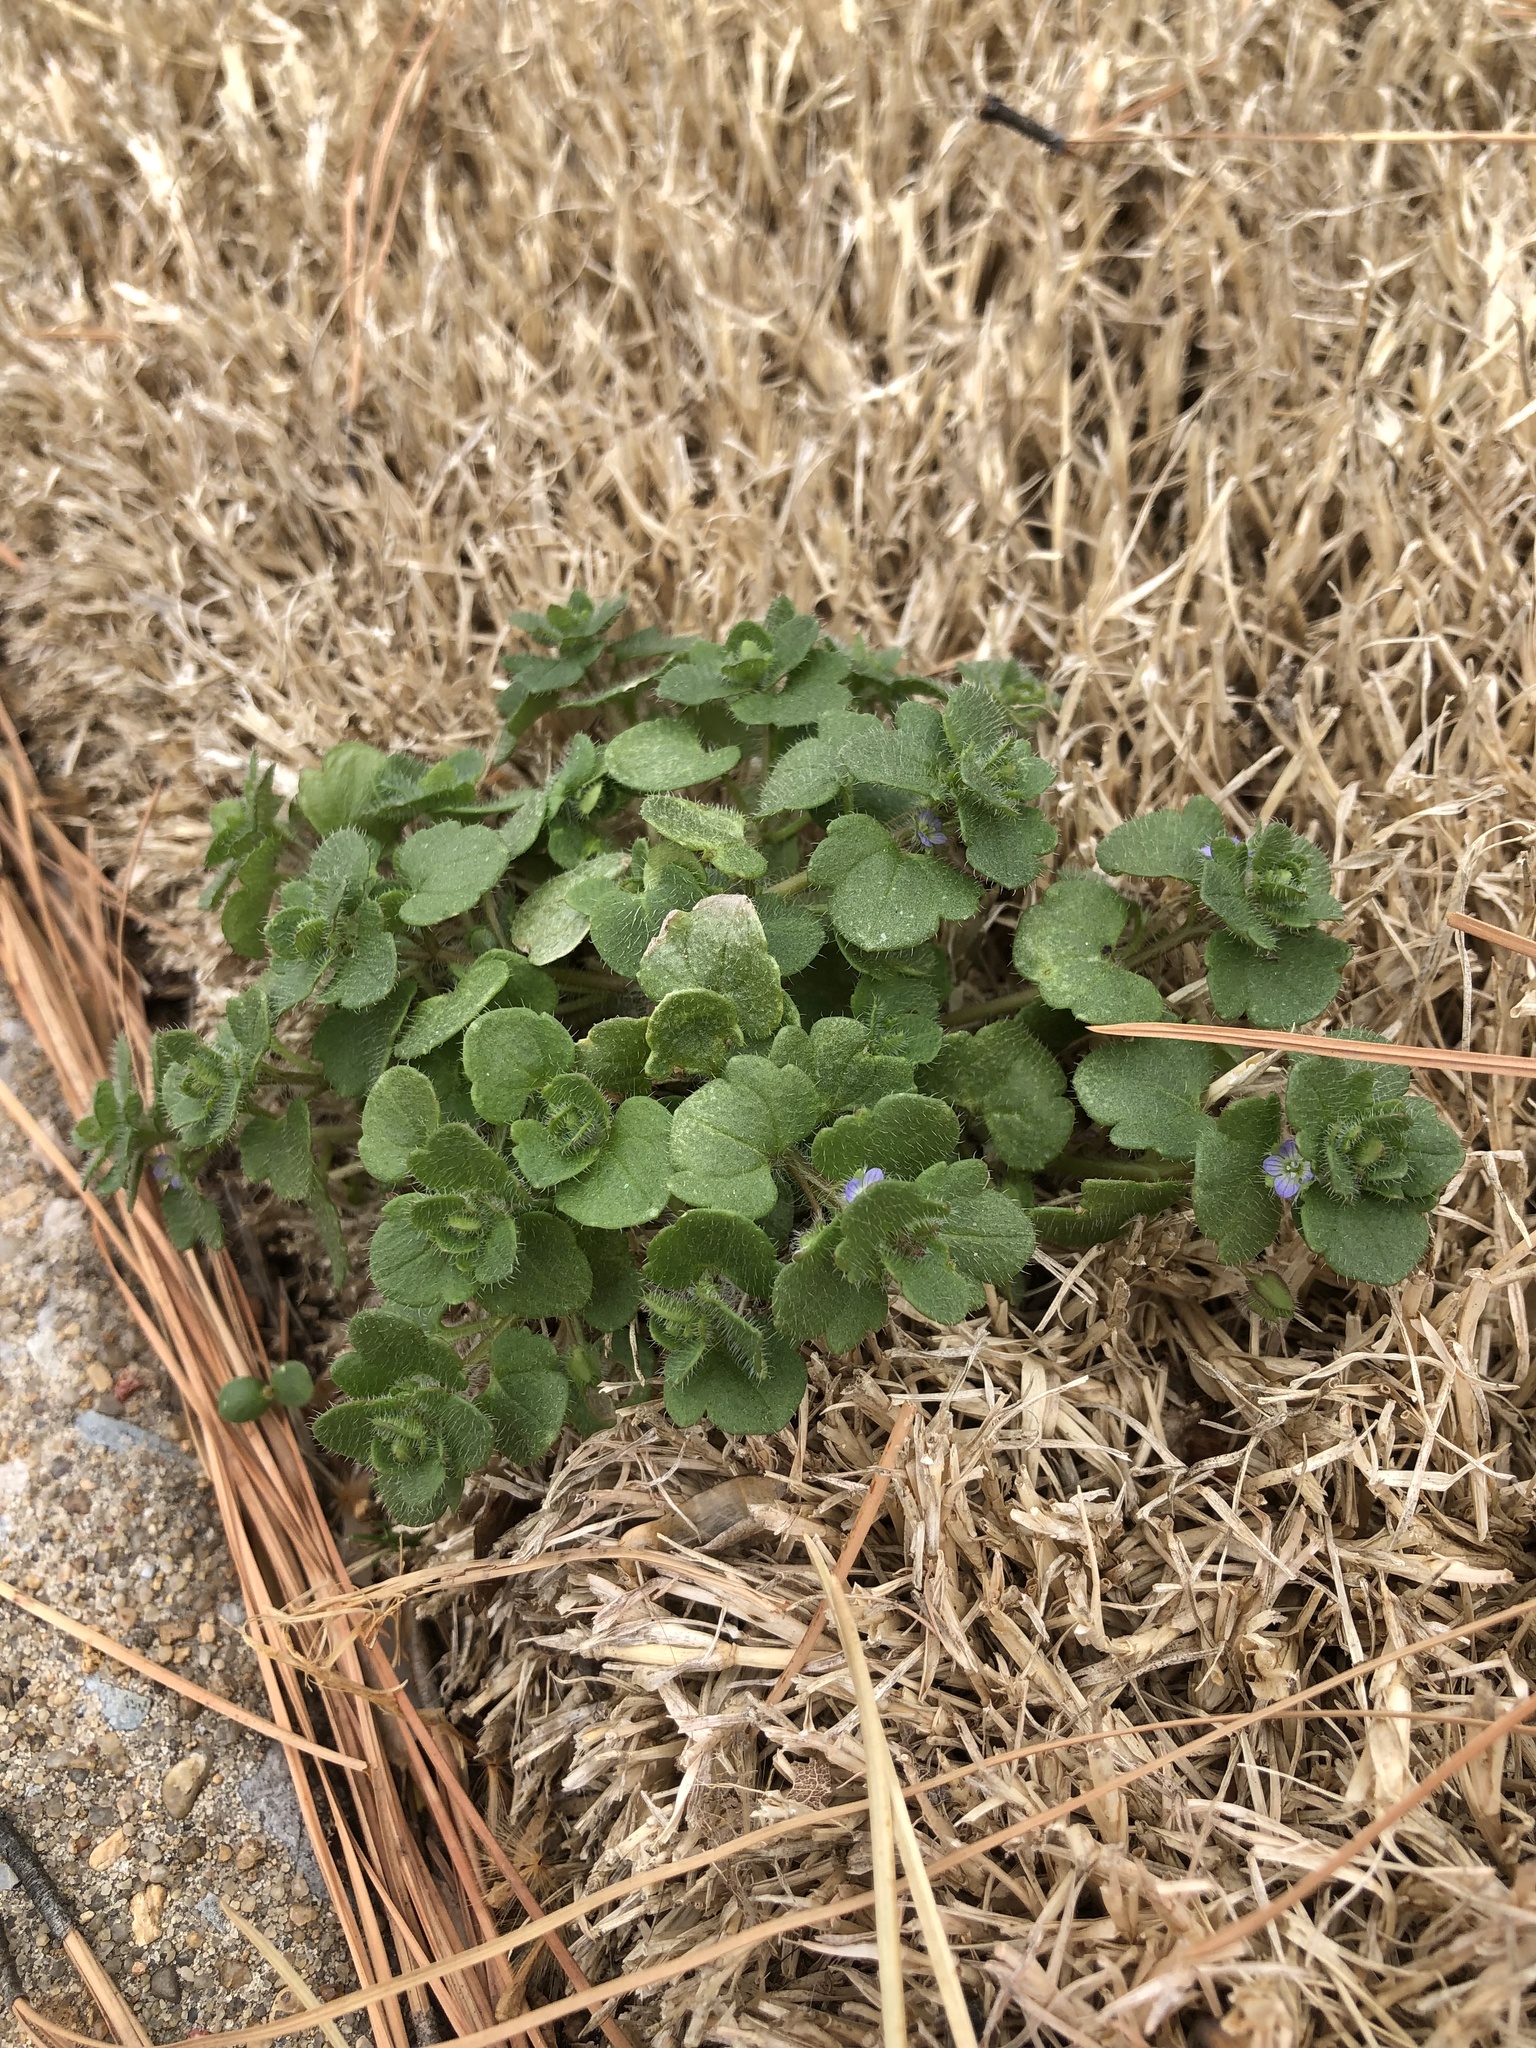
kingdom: Plantae
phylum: Tracheophyta
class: Magnoliopsida
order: Lamiales
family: Plantaginaceae
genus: Veronica
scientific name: Veronica hederifolia
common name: Ivy-leaved speedwell
